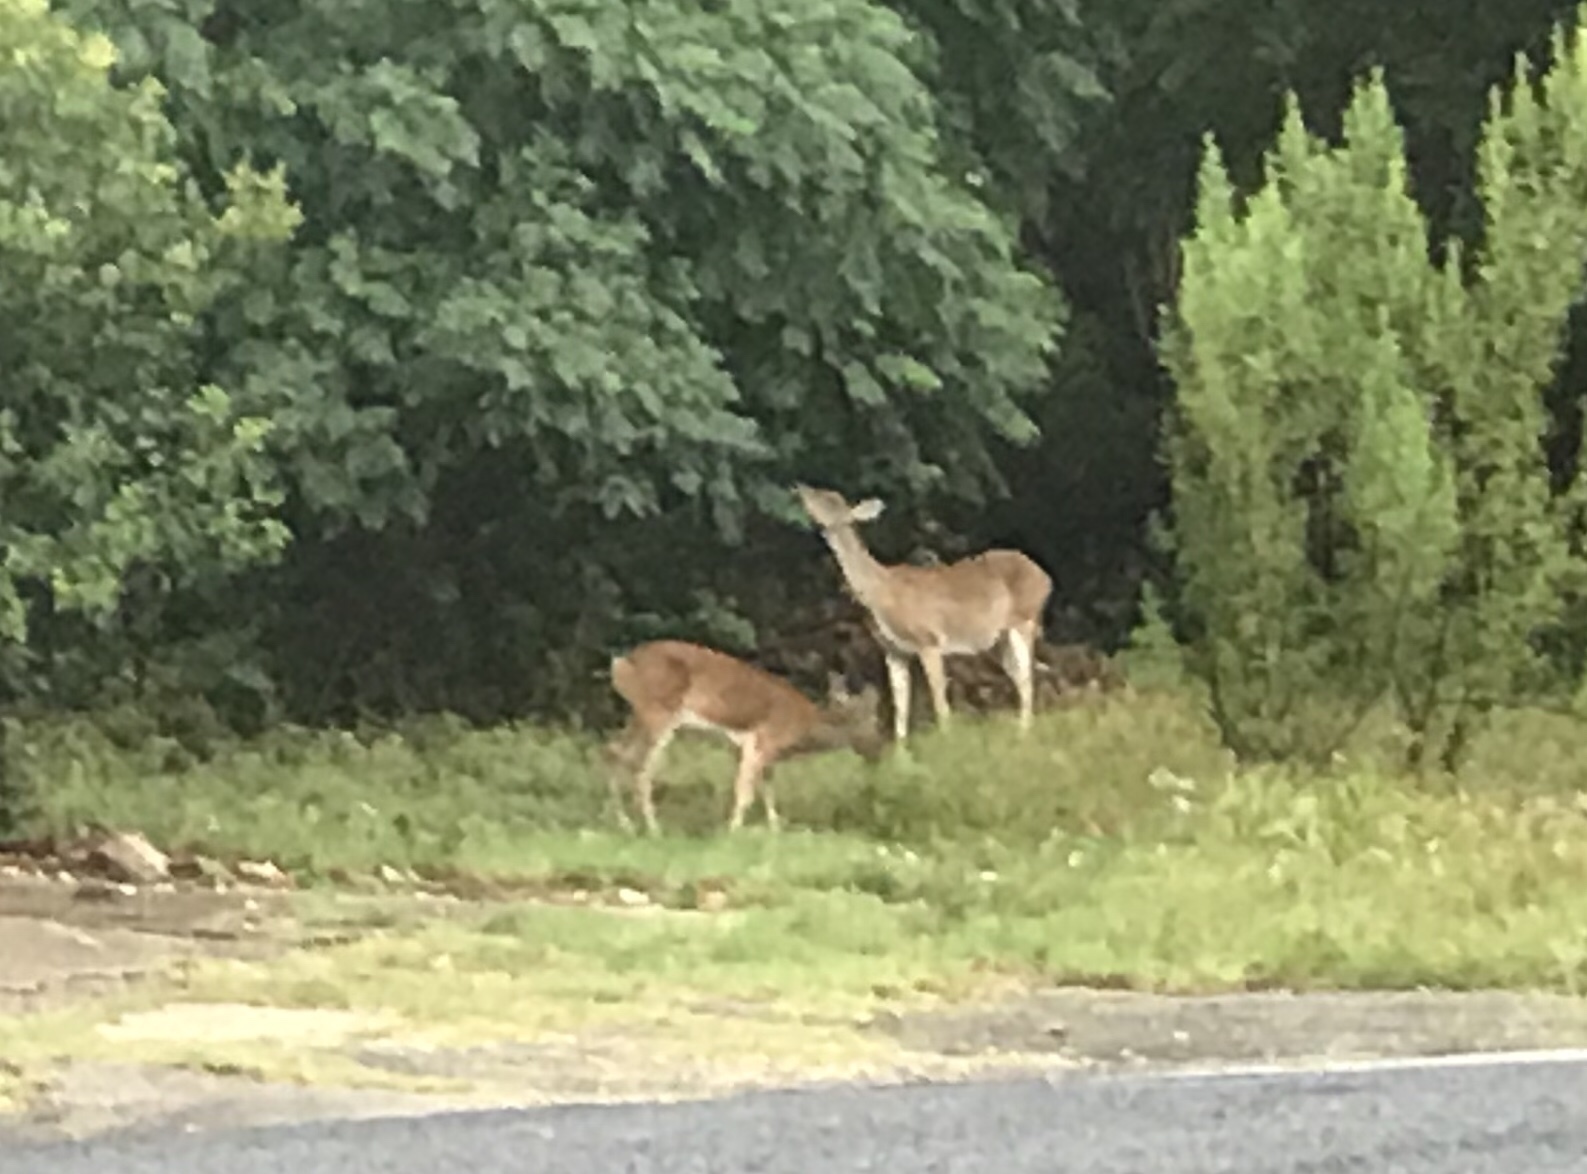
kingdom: Animalia
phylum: Chordata
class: Mammalia
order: Artiodactyla
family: Cervidae
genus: Odocoileus
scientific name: Odocoileus virginianus
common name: White-tailed deer
